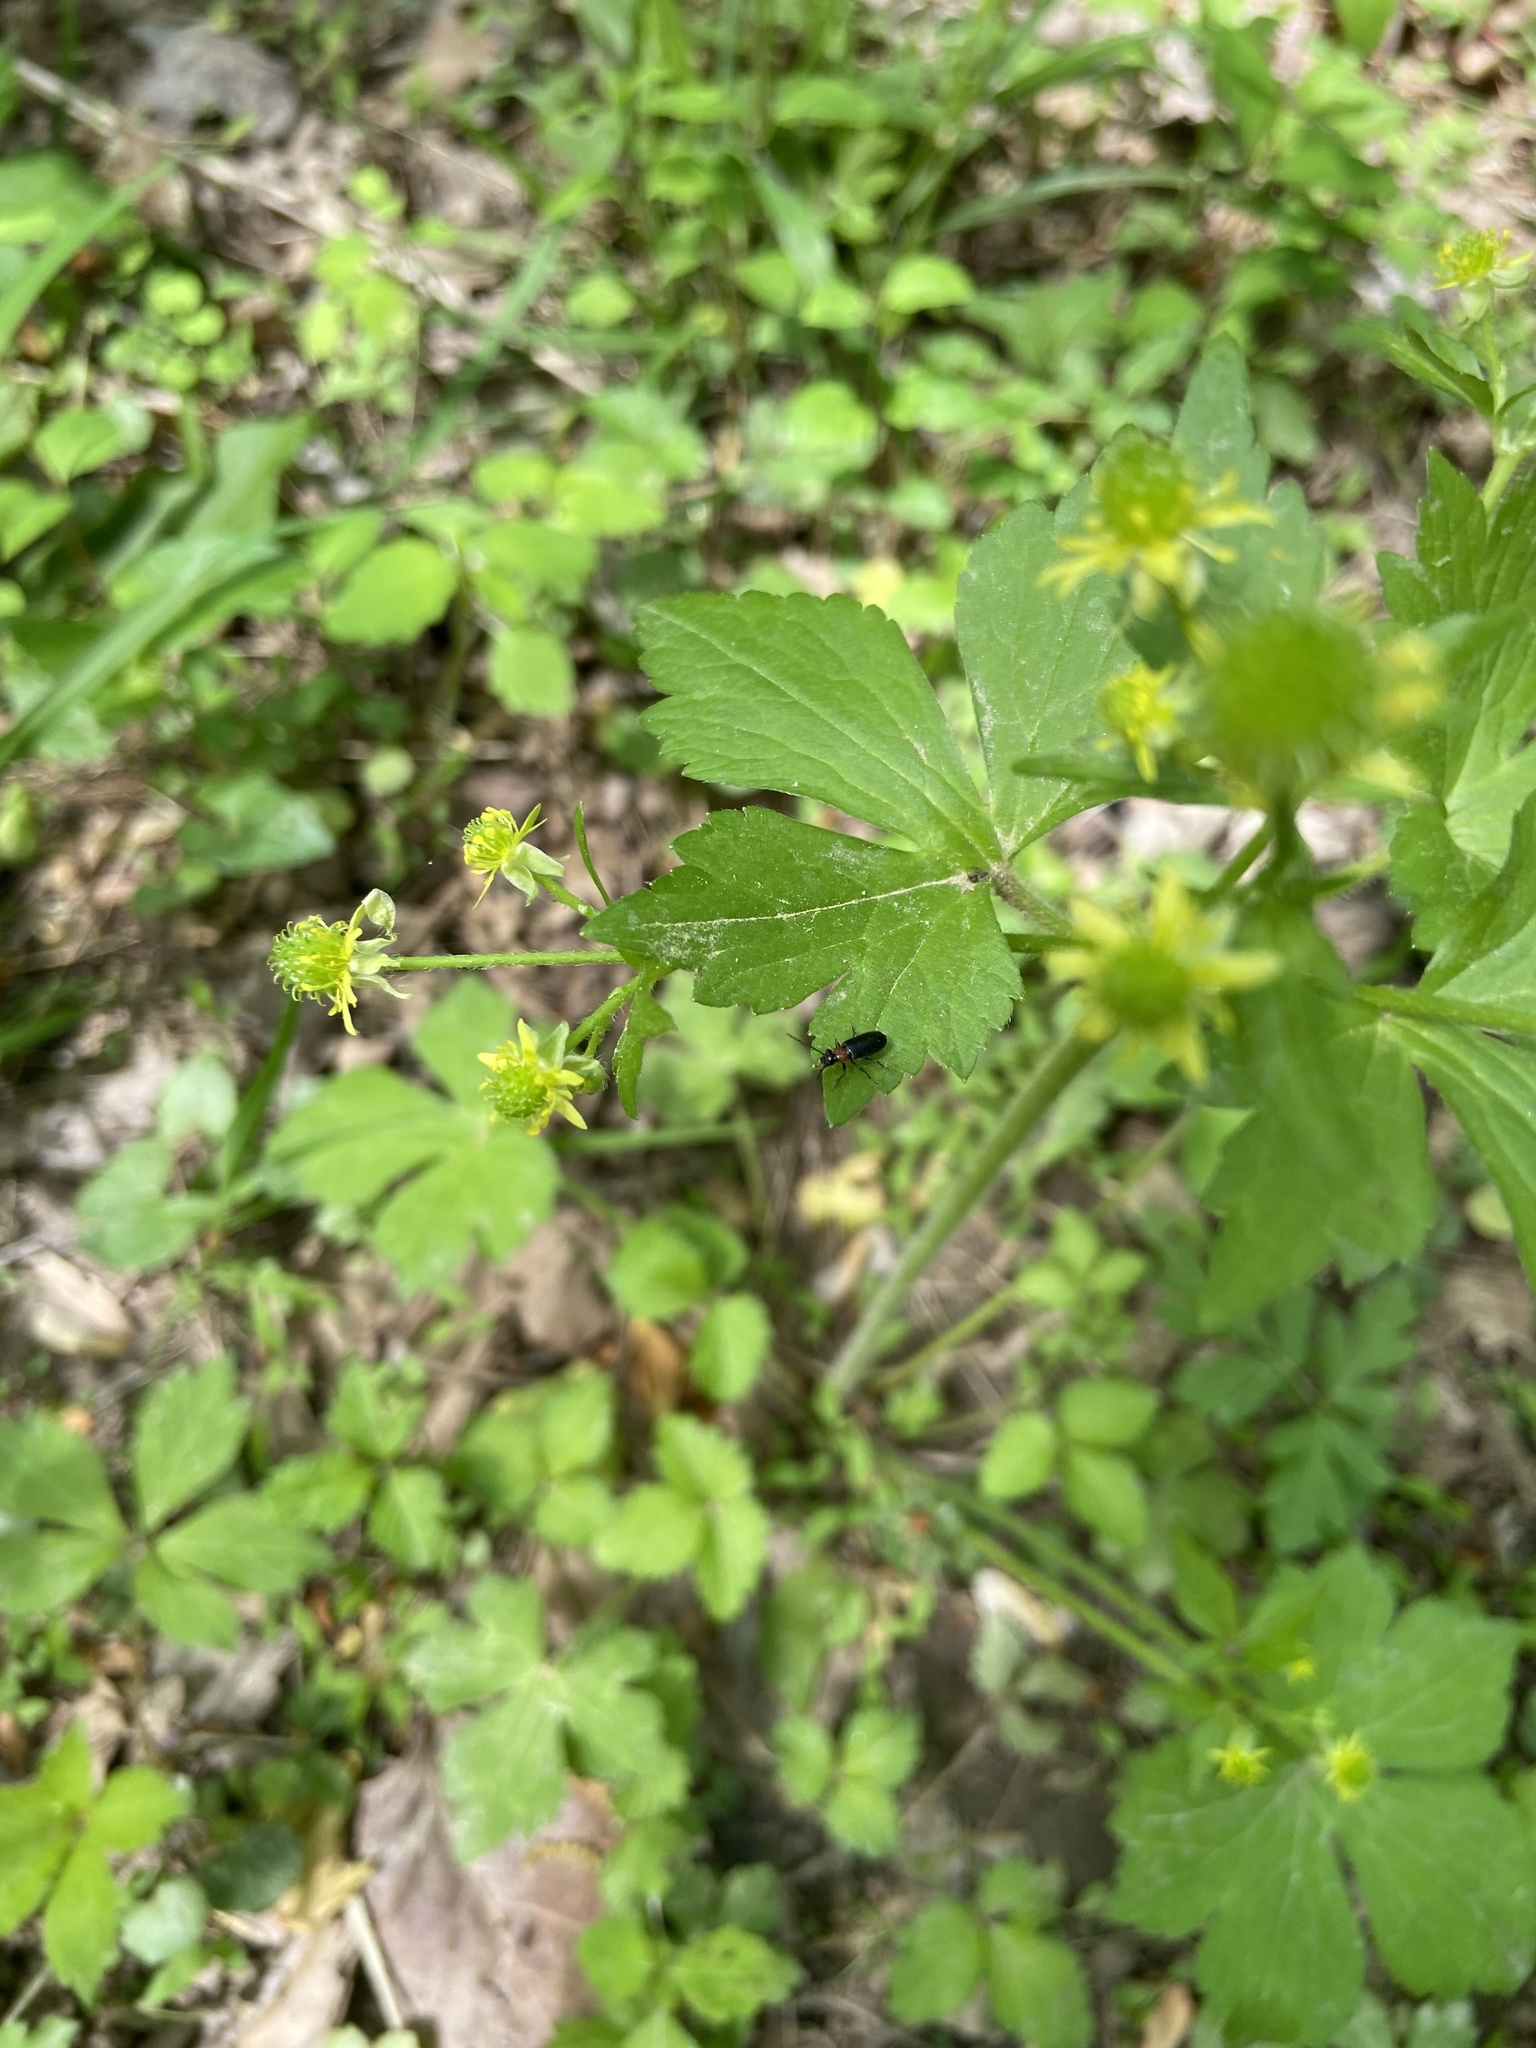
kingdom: Plantae
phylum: Tracheophyta
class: Magnoliopsida
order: Ranunculales
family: Ranunculaceae
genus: Ranunculus
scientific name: Ranunculus recurvatus
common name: Blisterwort
